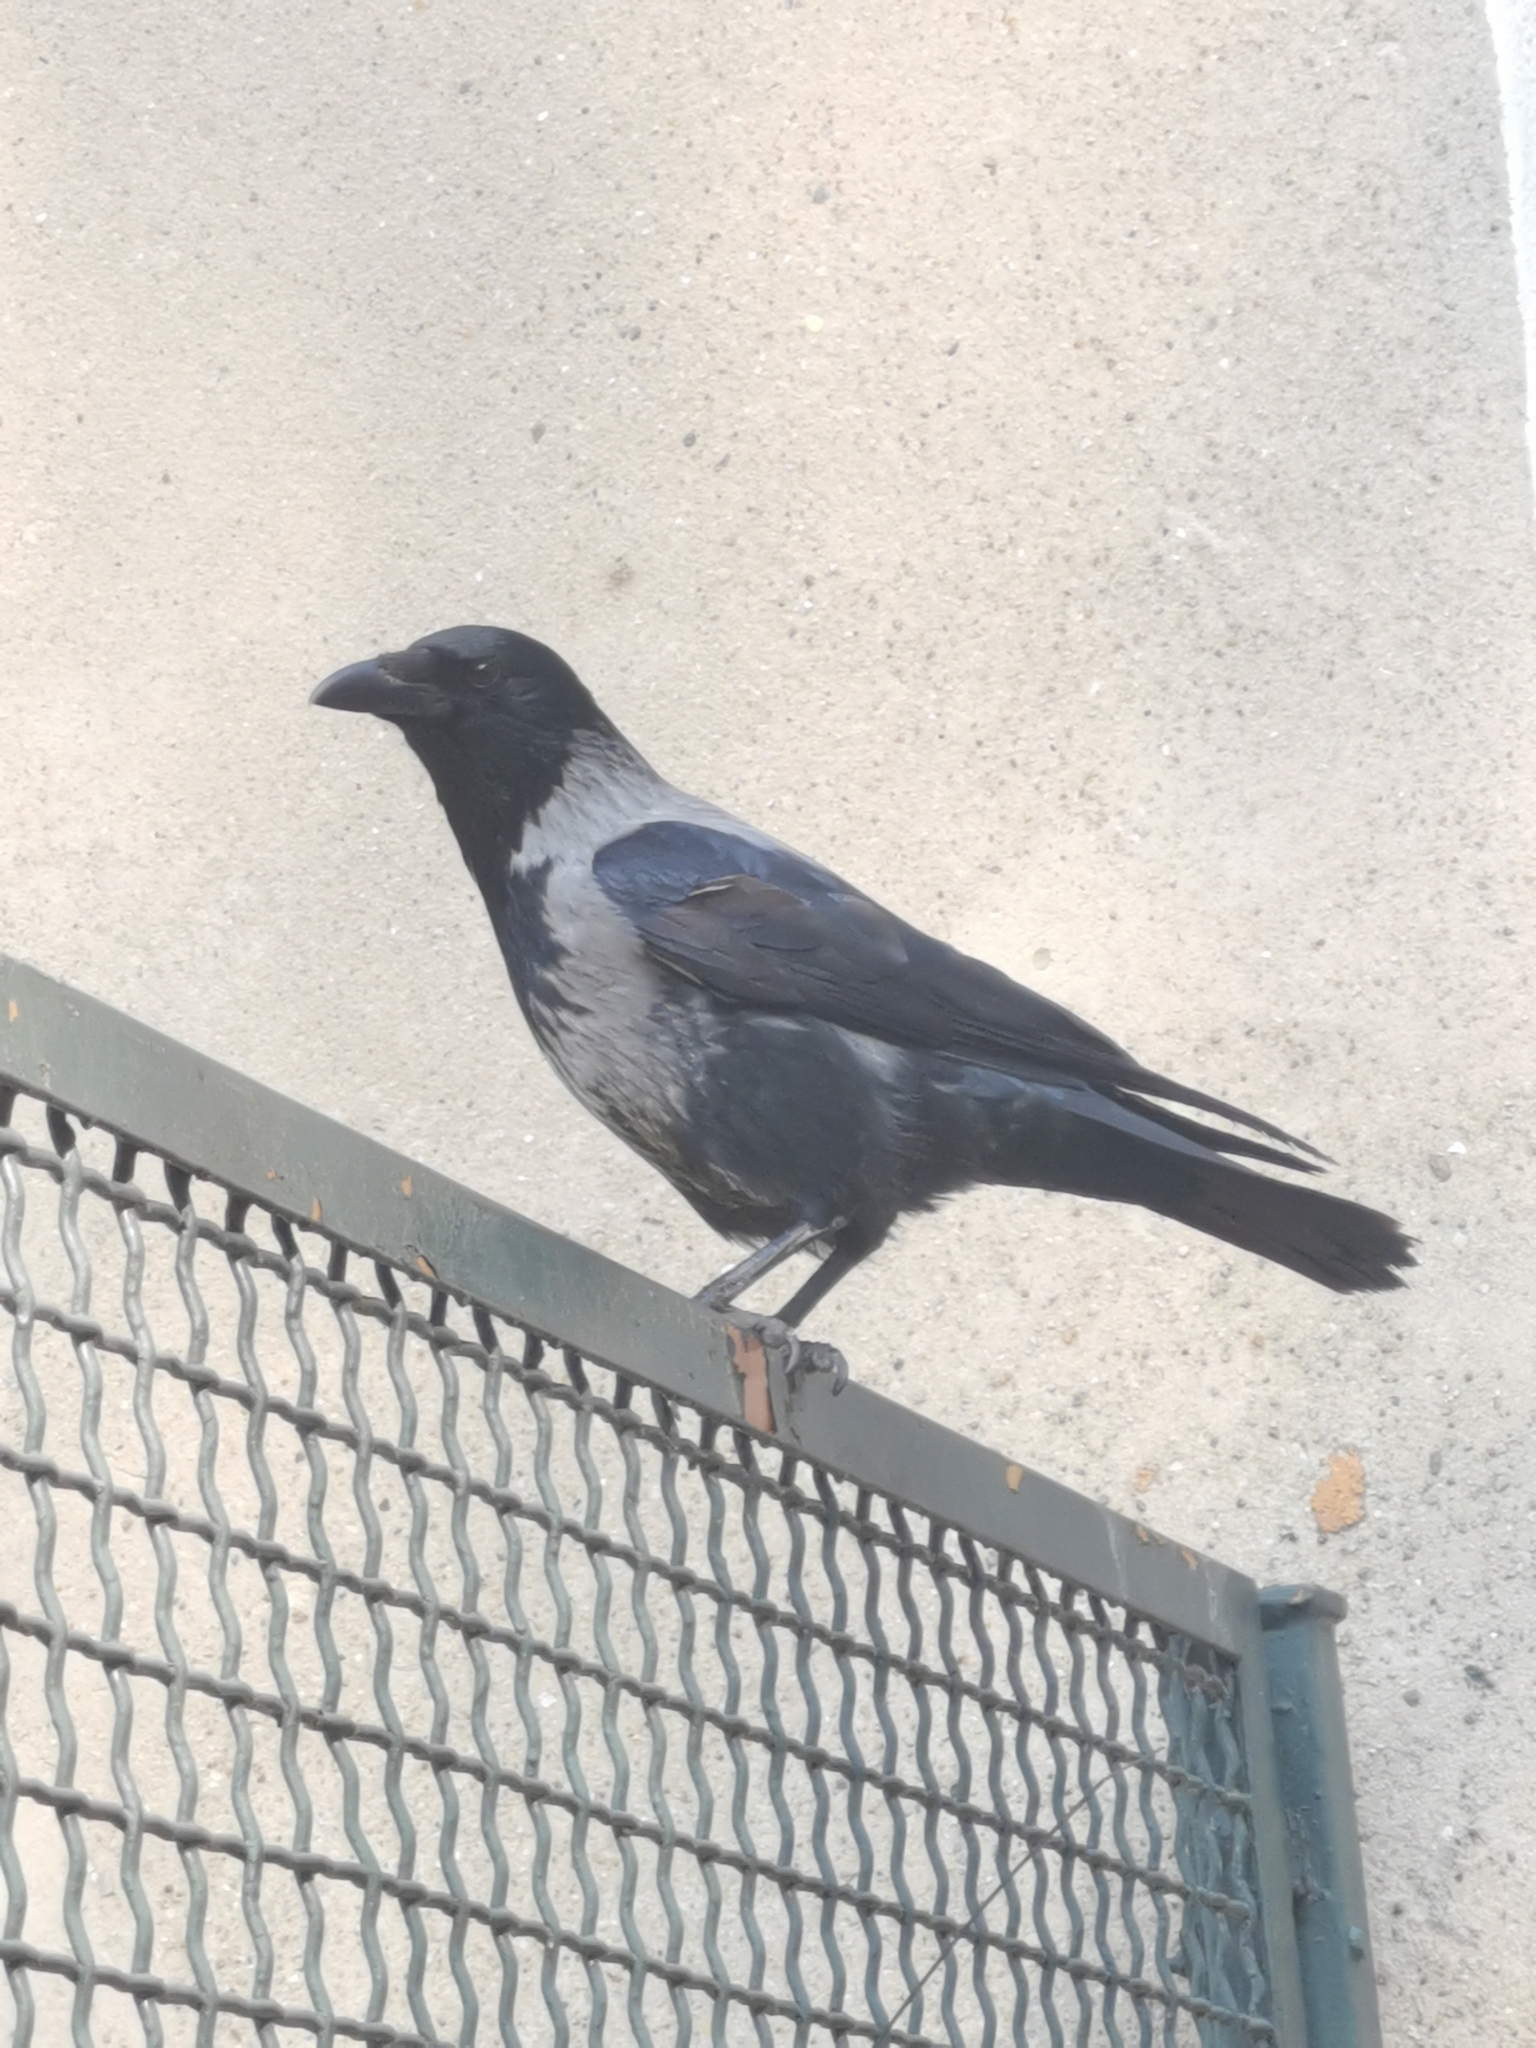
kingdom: Animalia
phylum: Chordata
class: Aves
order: Passeriformes
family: Corvidae
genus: Corvus
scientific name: Corvus
